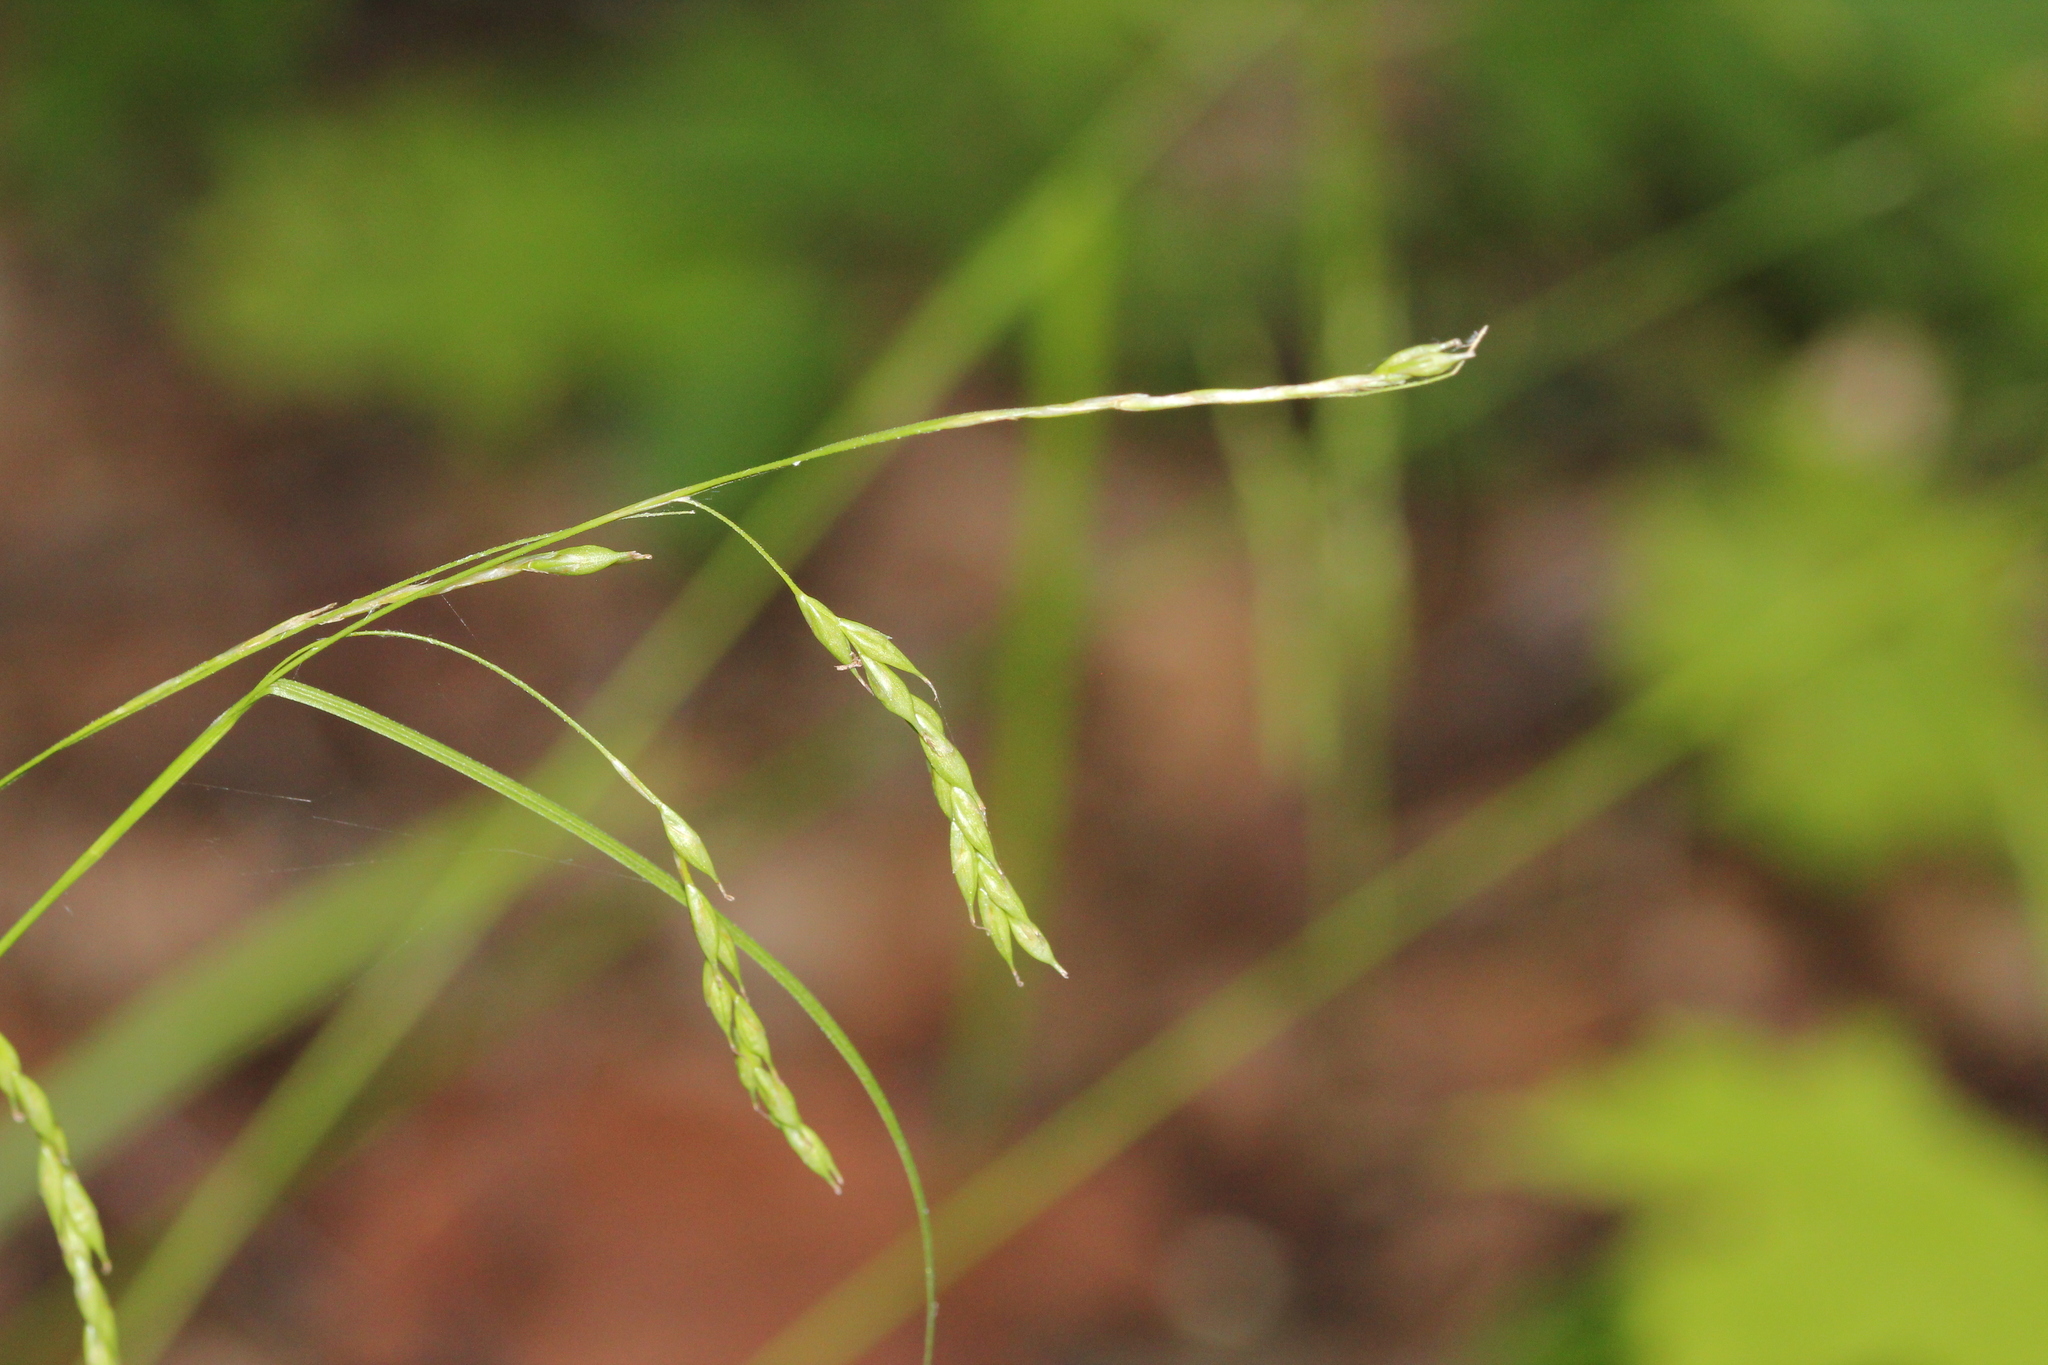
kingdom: Plantae
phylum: Tracheophyta
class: Liliopsida
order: Poales
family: Cyperaceae
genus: Carex
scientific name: Carex debilis
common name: White-edge sedge
